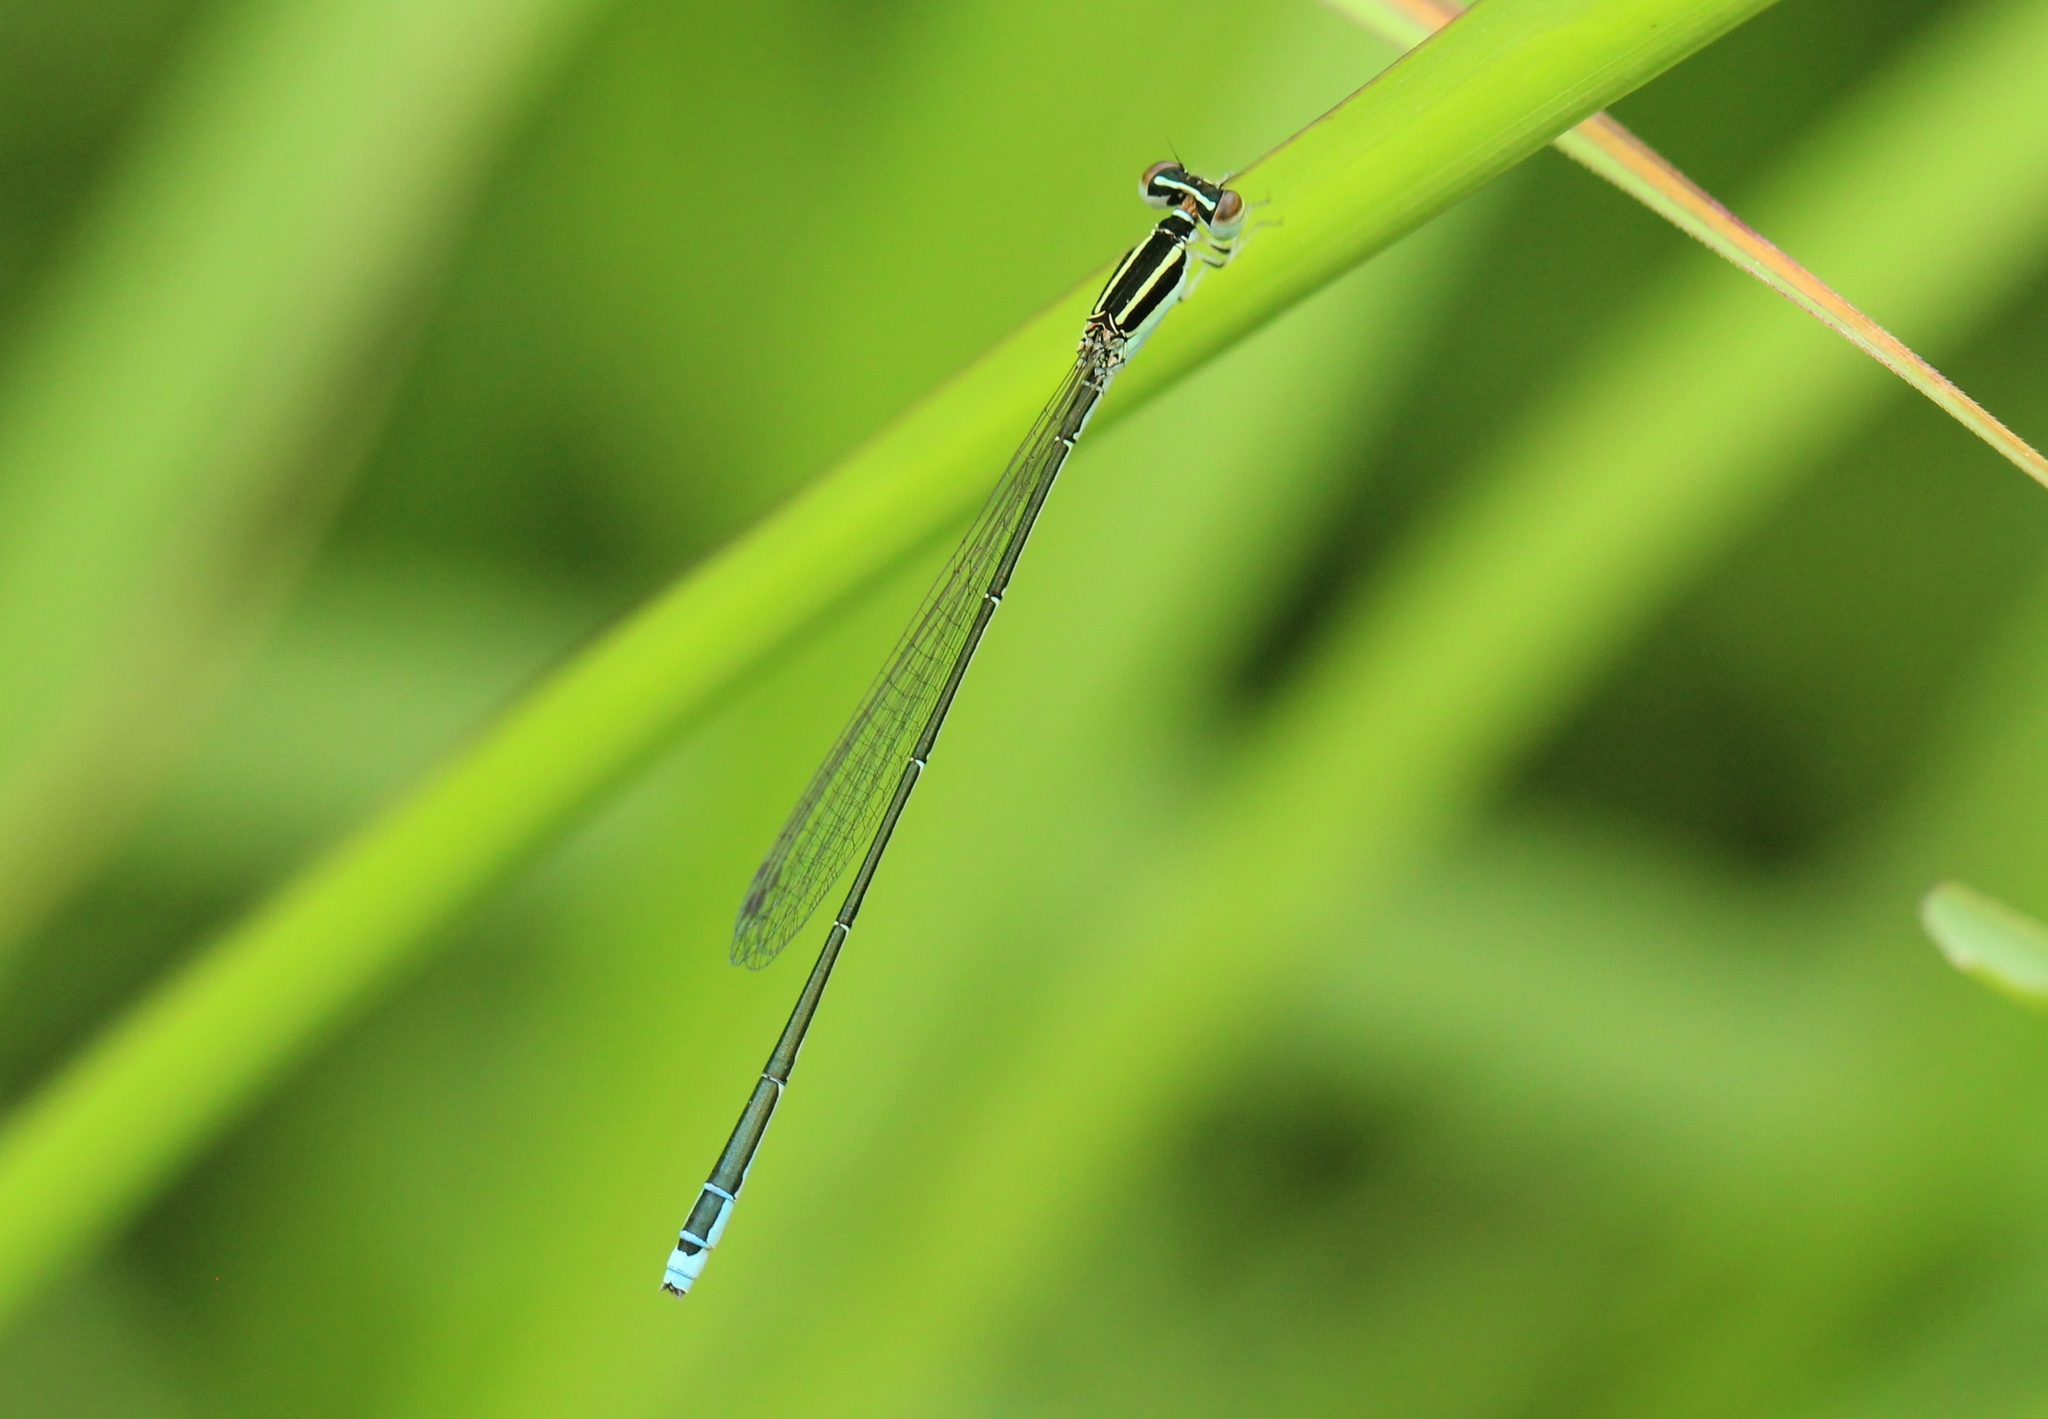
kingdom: Animalia
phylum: Arthropoda
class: Insecta
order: Odonata
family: Coenagrionidae
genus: Aciagrion
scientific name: Aciagrion occidentale
